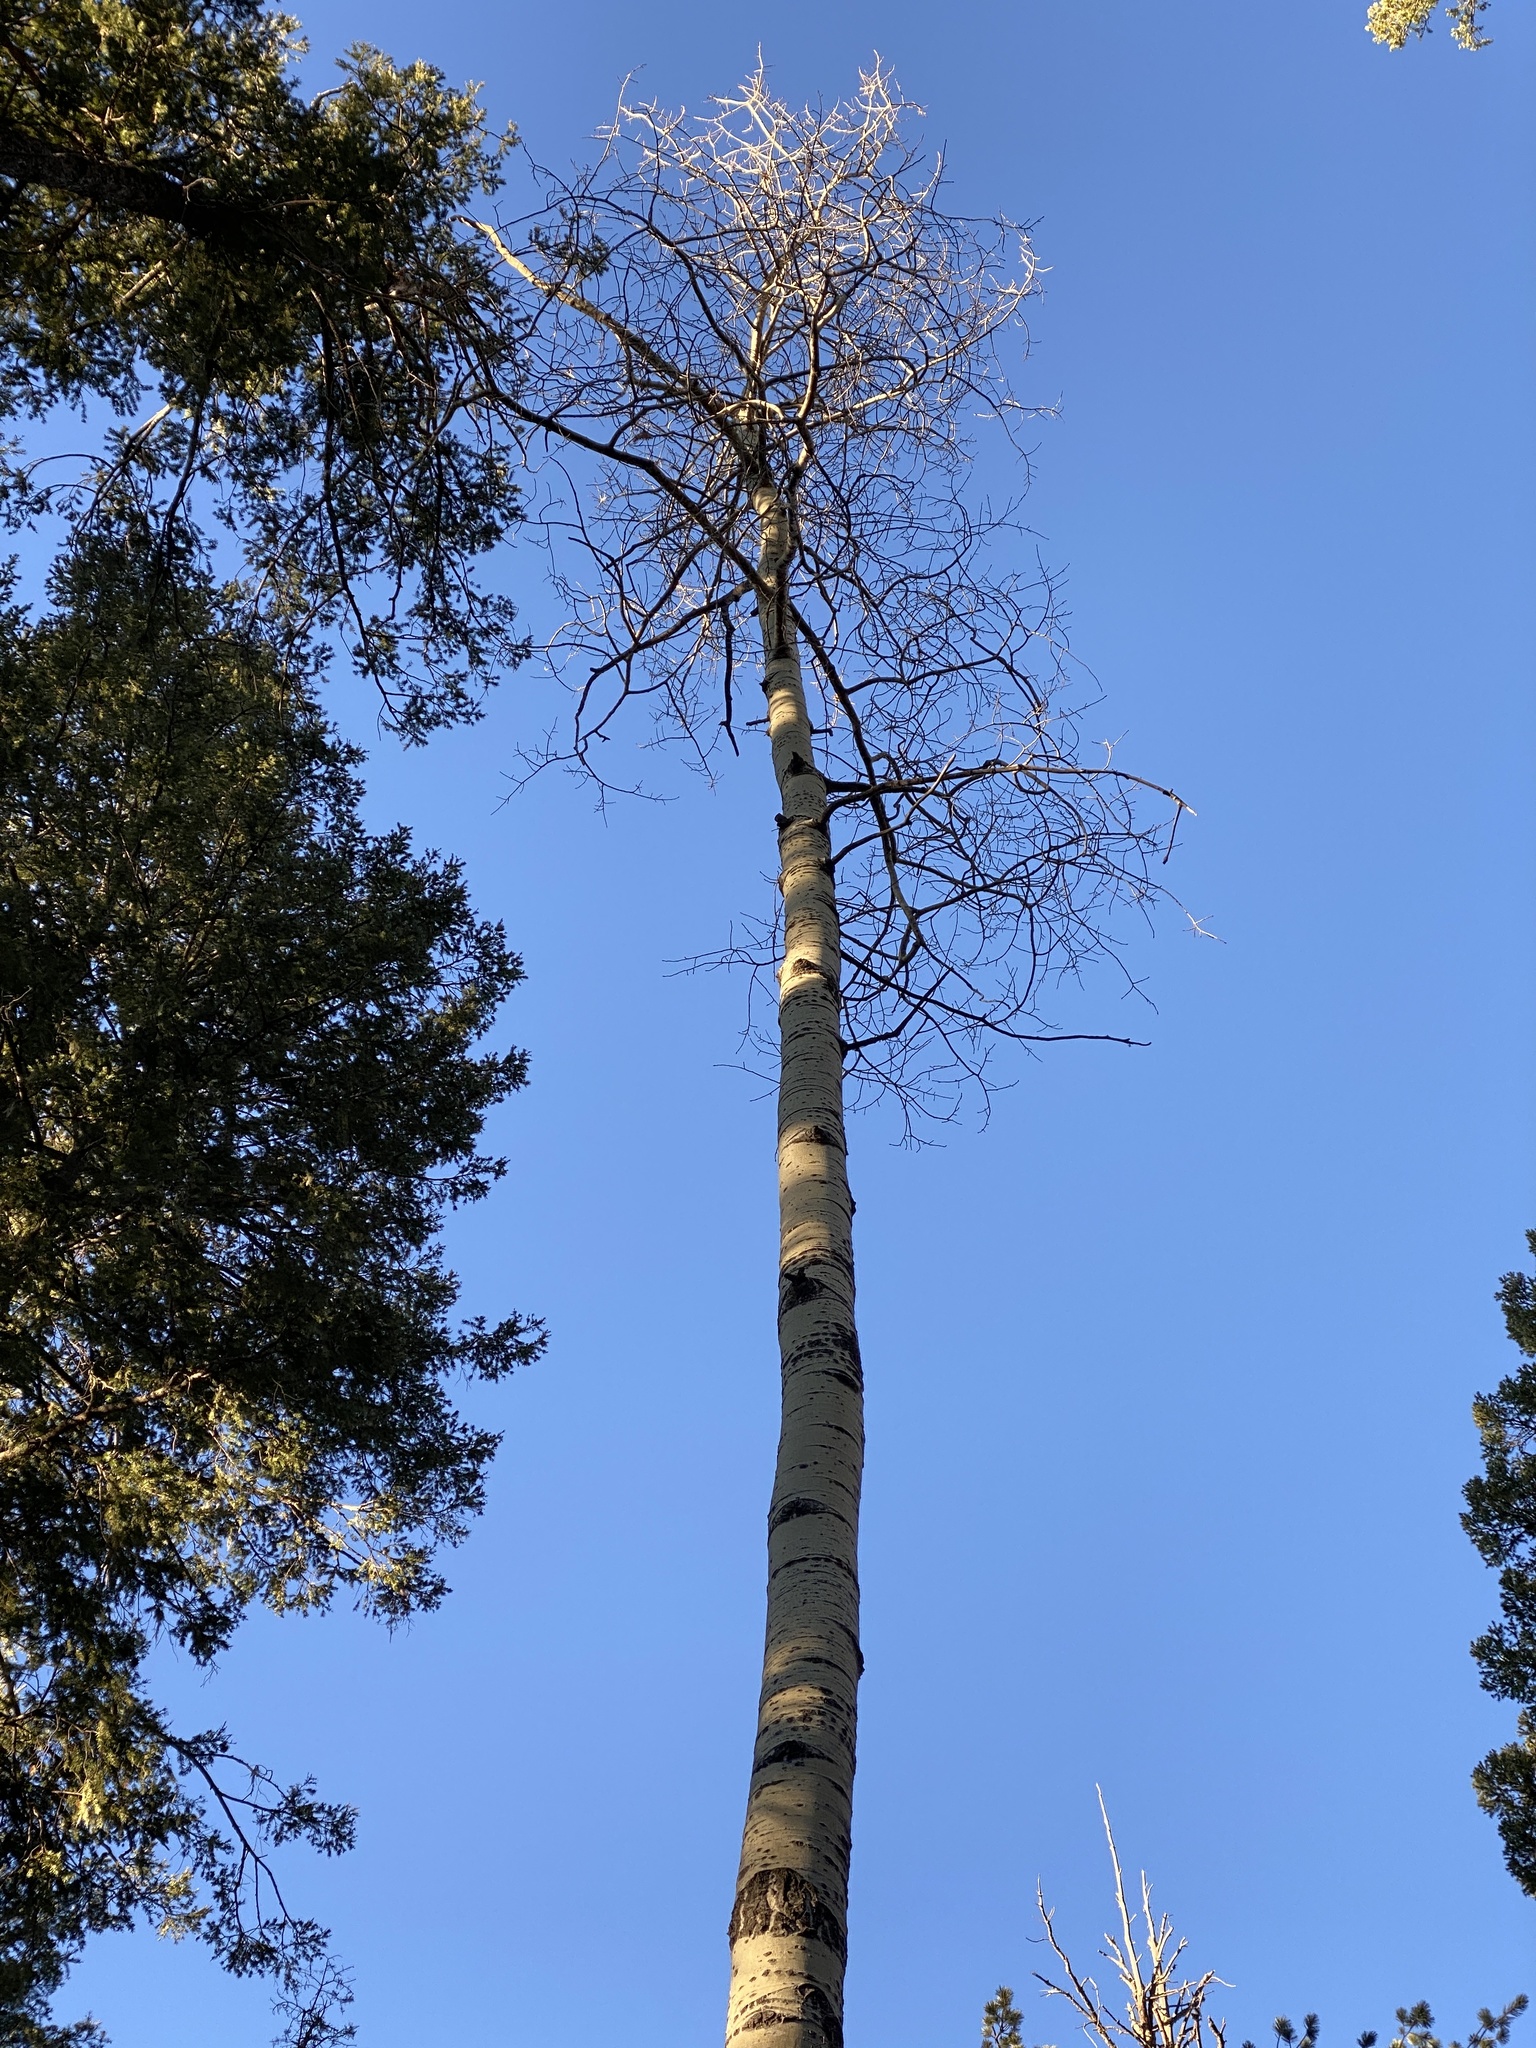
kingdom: Plantae
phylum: Tracheophyta
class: Magnoliopsida
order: Malpighiales
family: Salicaceae
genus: Populus
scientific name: Populus tremuloides
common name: Quaking aspen
